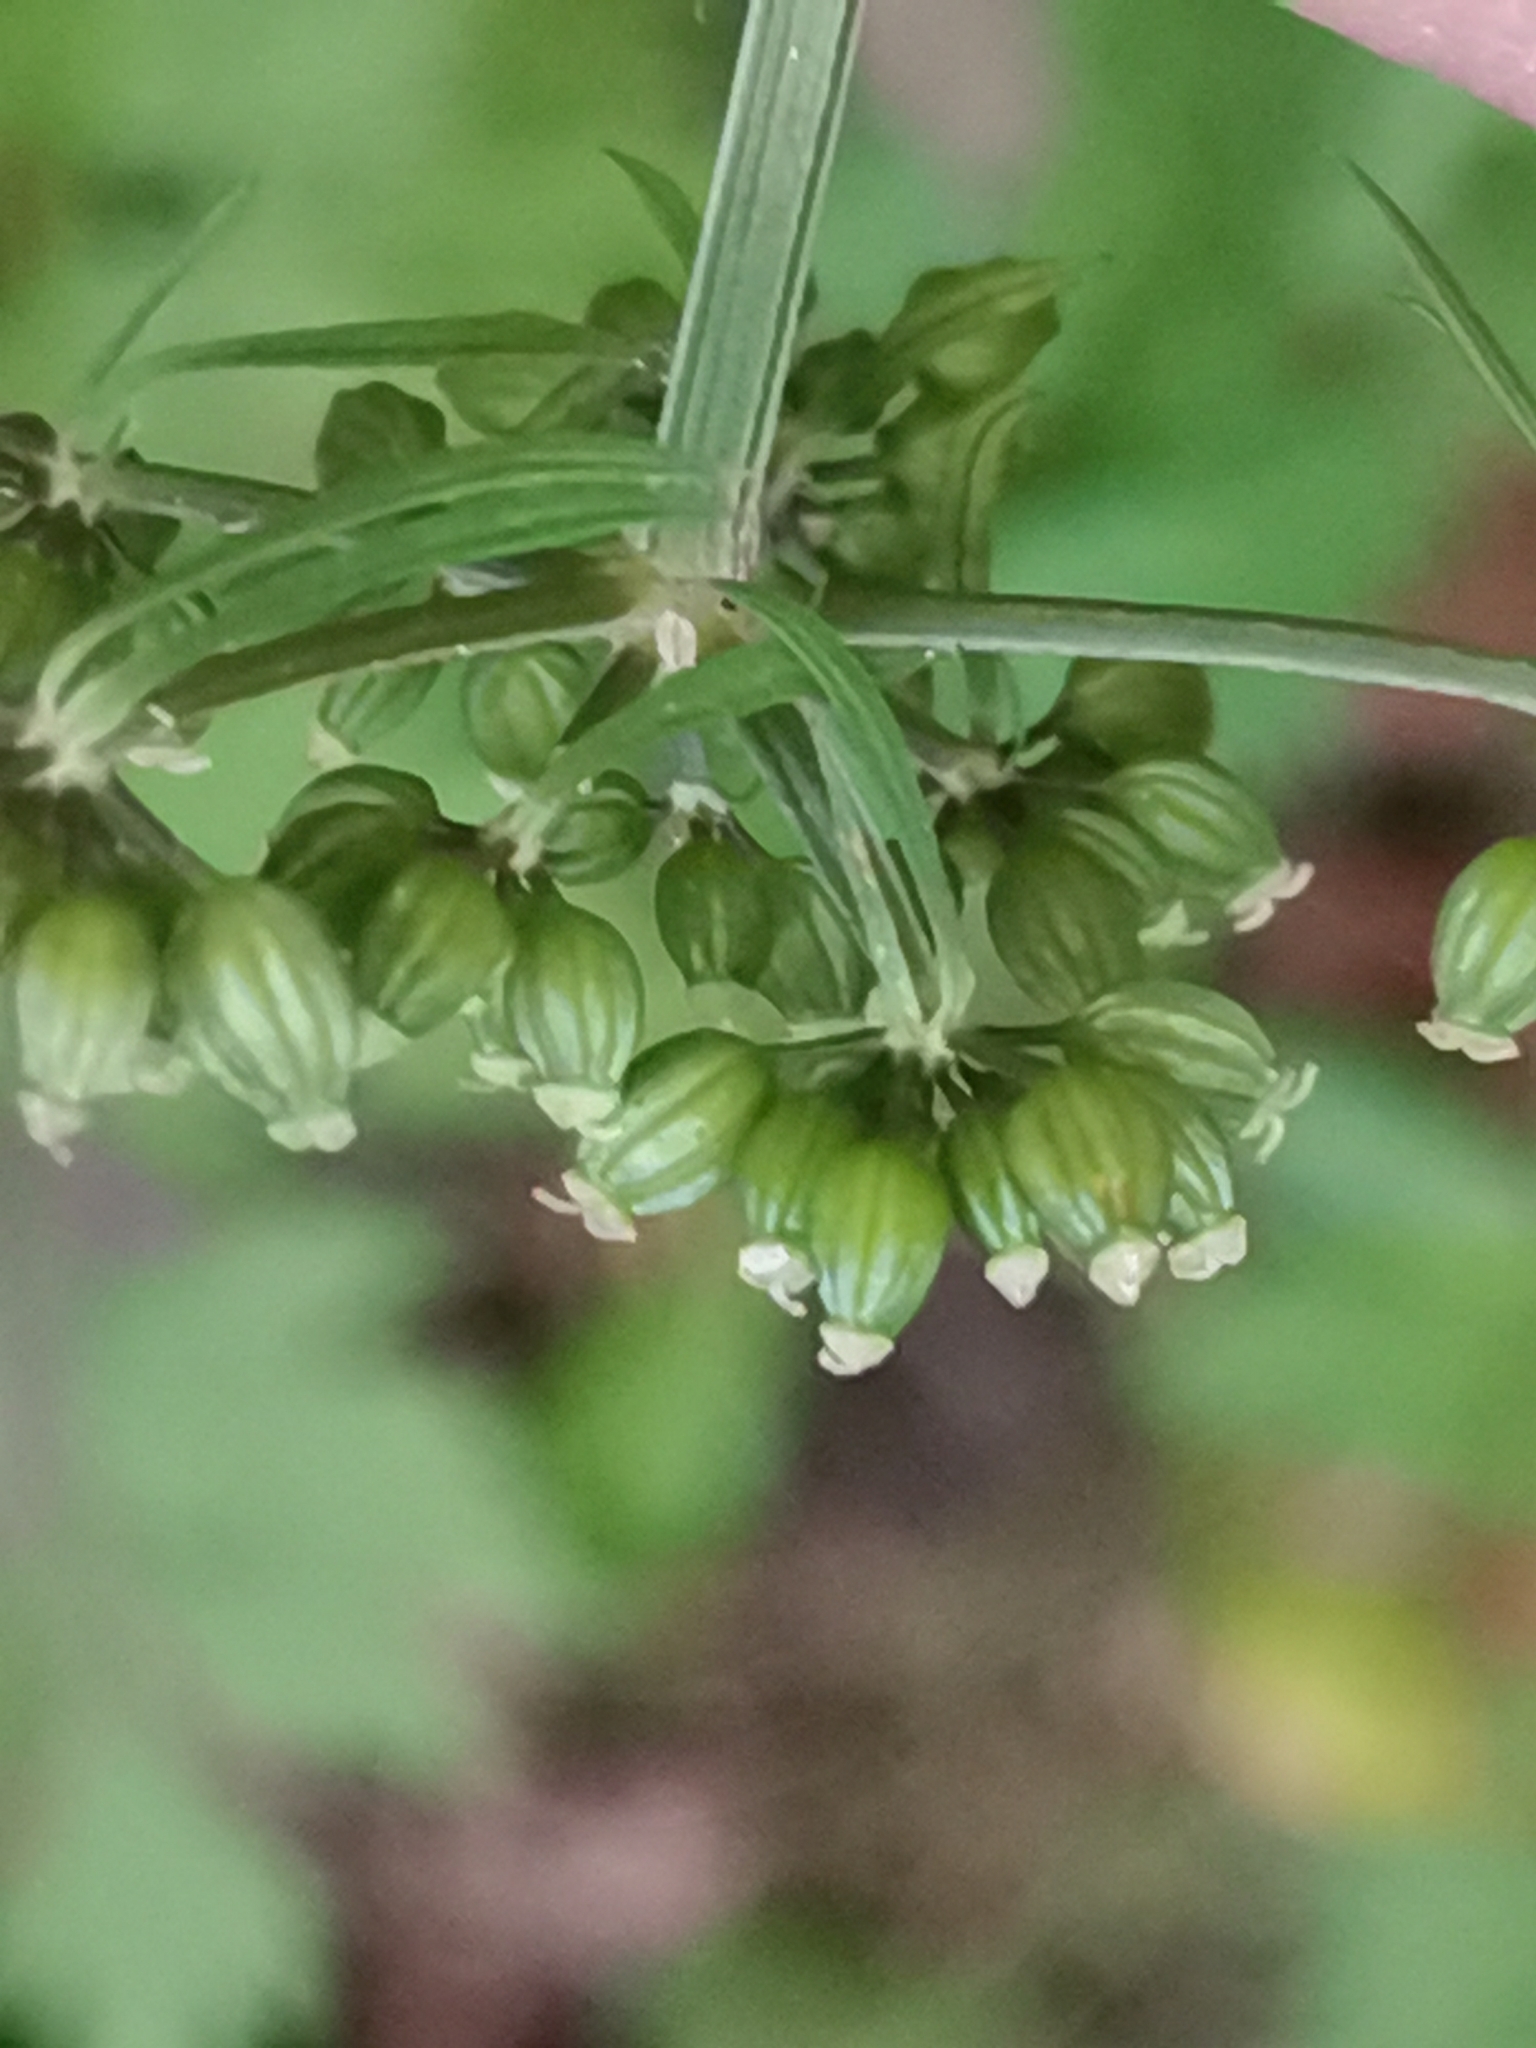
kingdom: Plantae
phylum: Tracheophyta
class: Magnoliopsida
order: Apiales
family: Apiaceae
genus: Aethusa
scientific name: Aethusa cynapium
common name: Fool's parsley
